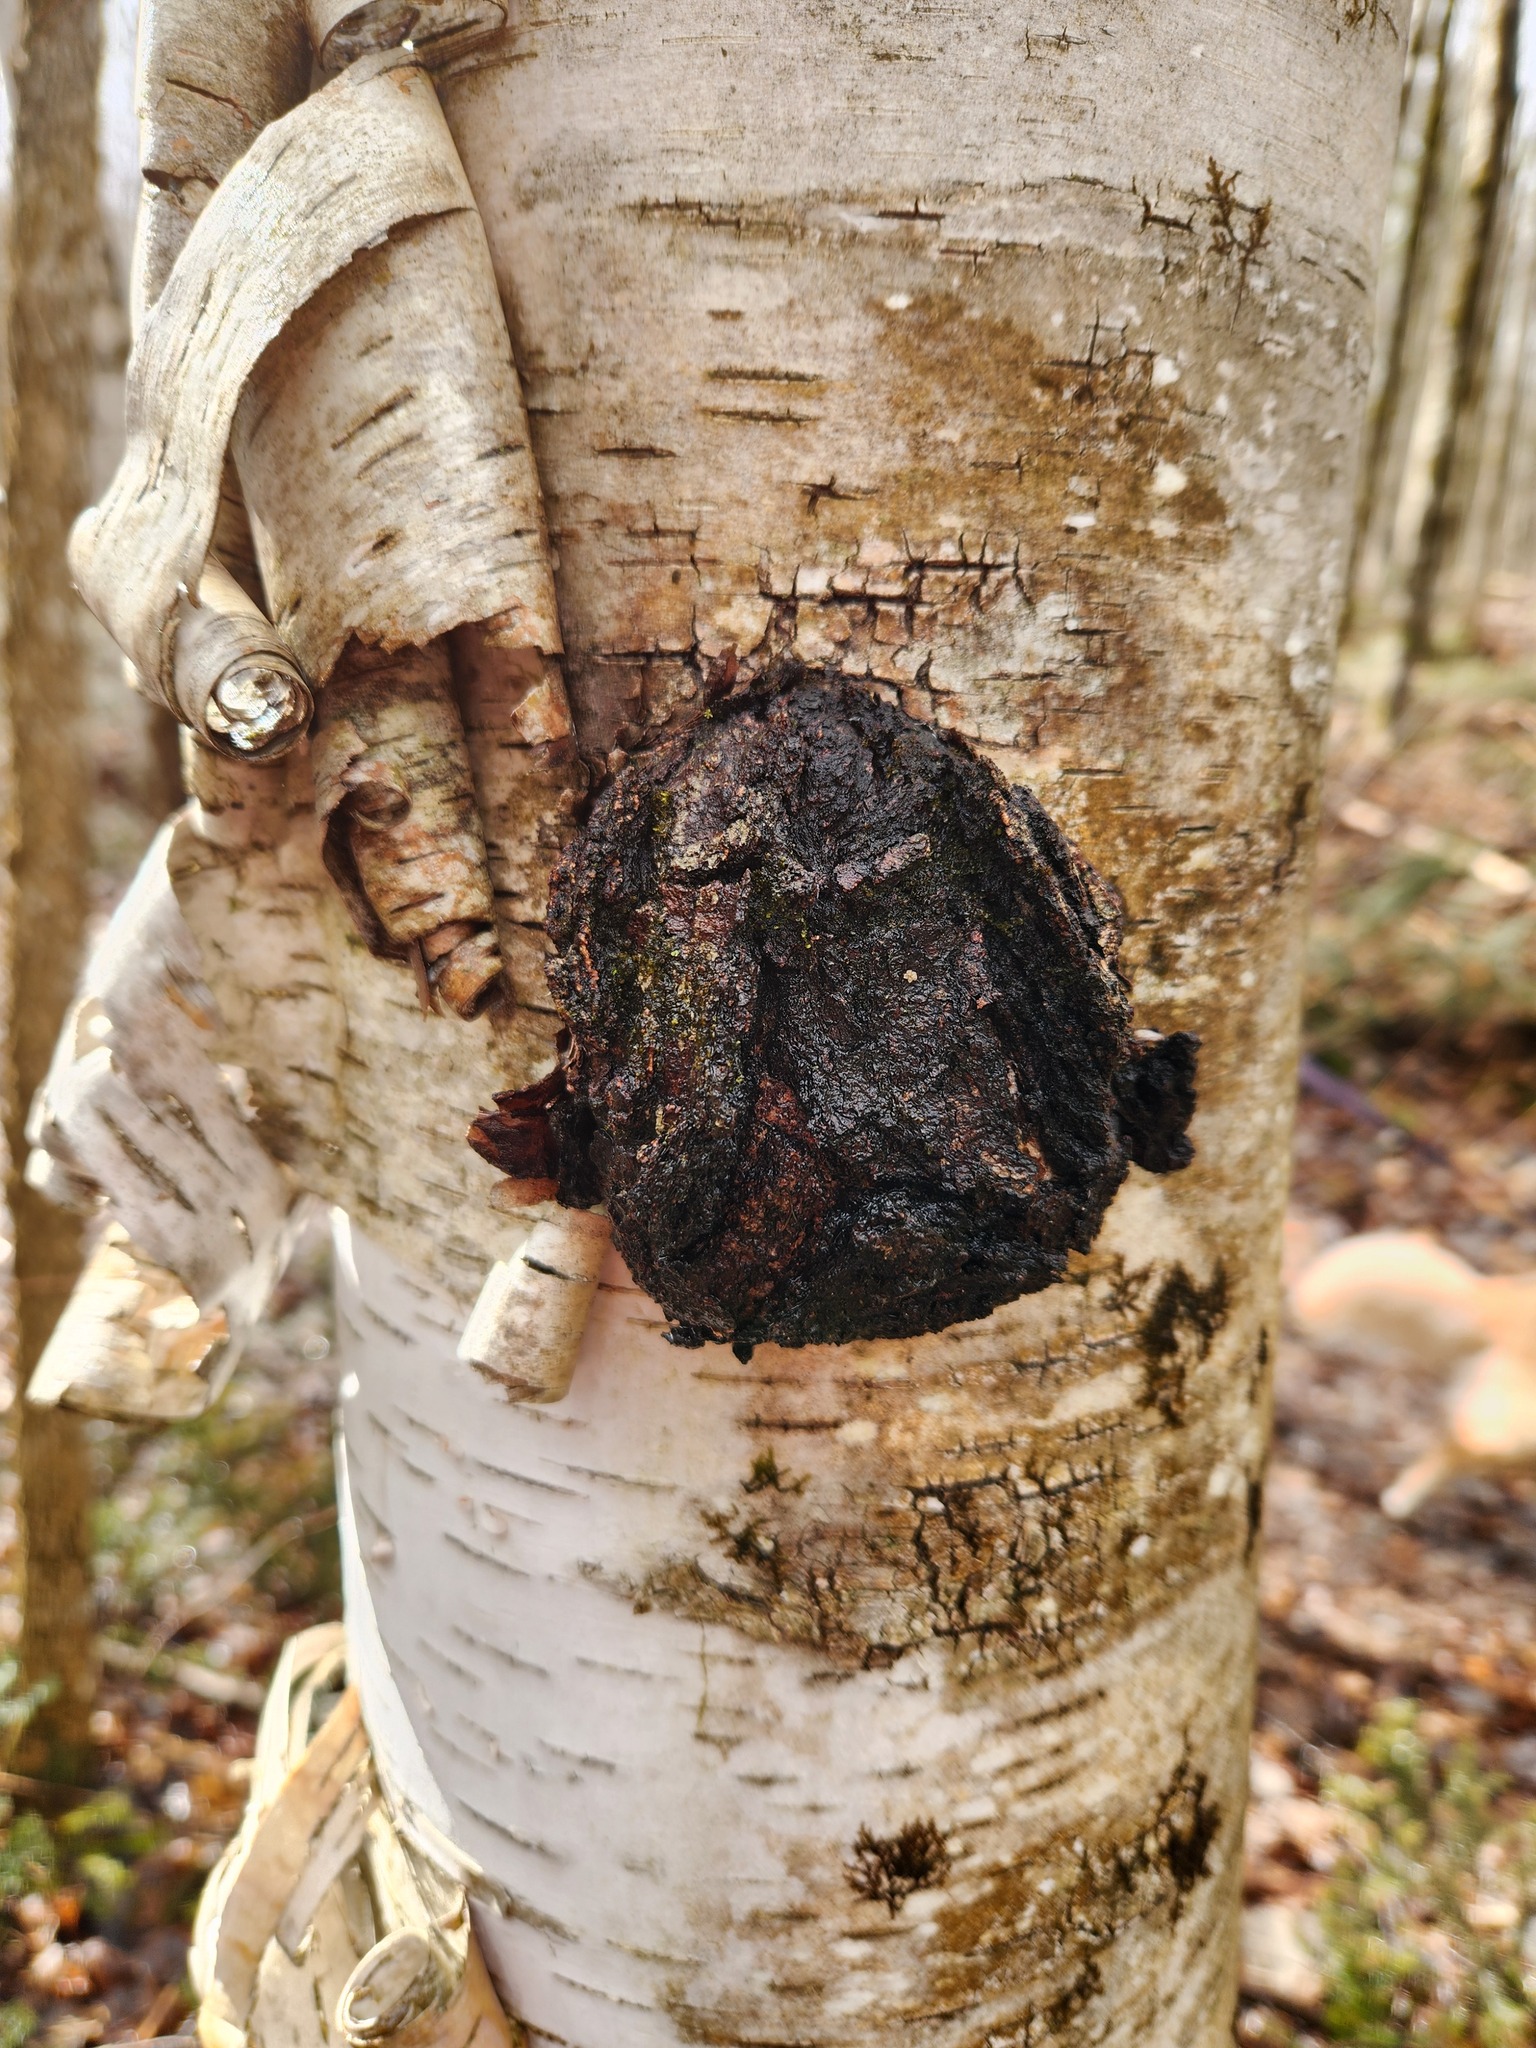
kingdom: Fungi
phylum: Basidiomycota
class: Agaricomycetes
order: Hymenochaetales
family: Hymenochaetaceae
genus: Inonotus
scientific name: Inonotus obliquus
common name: Chaga
